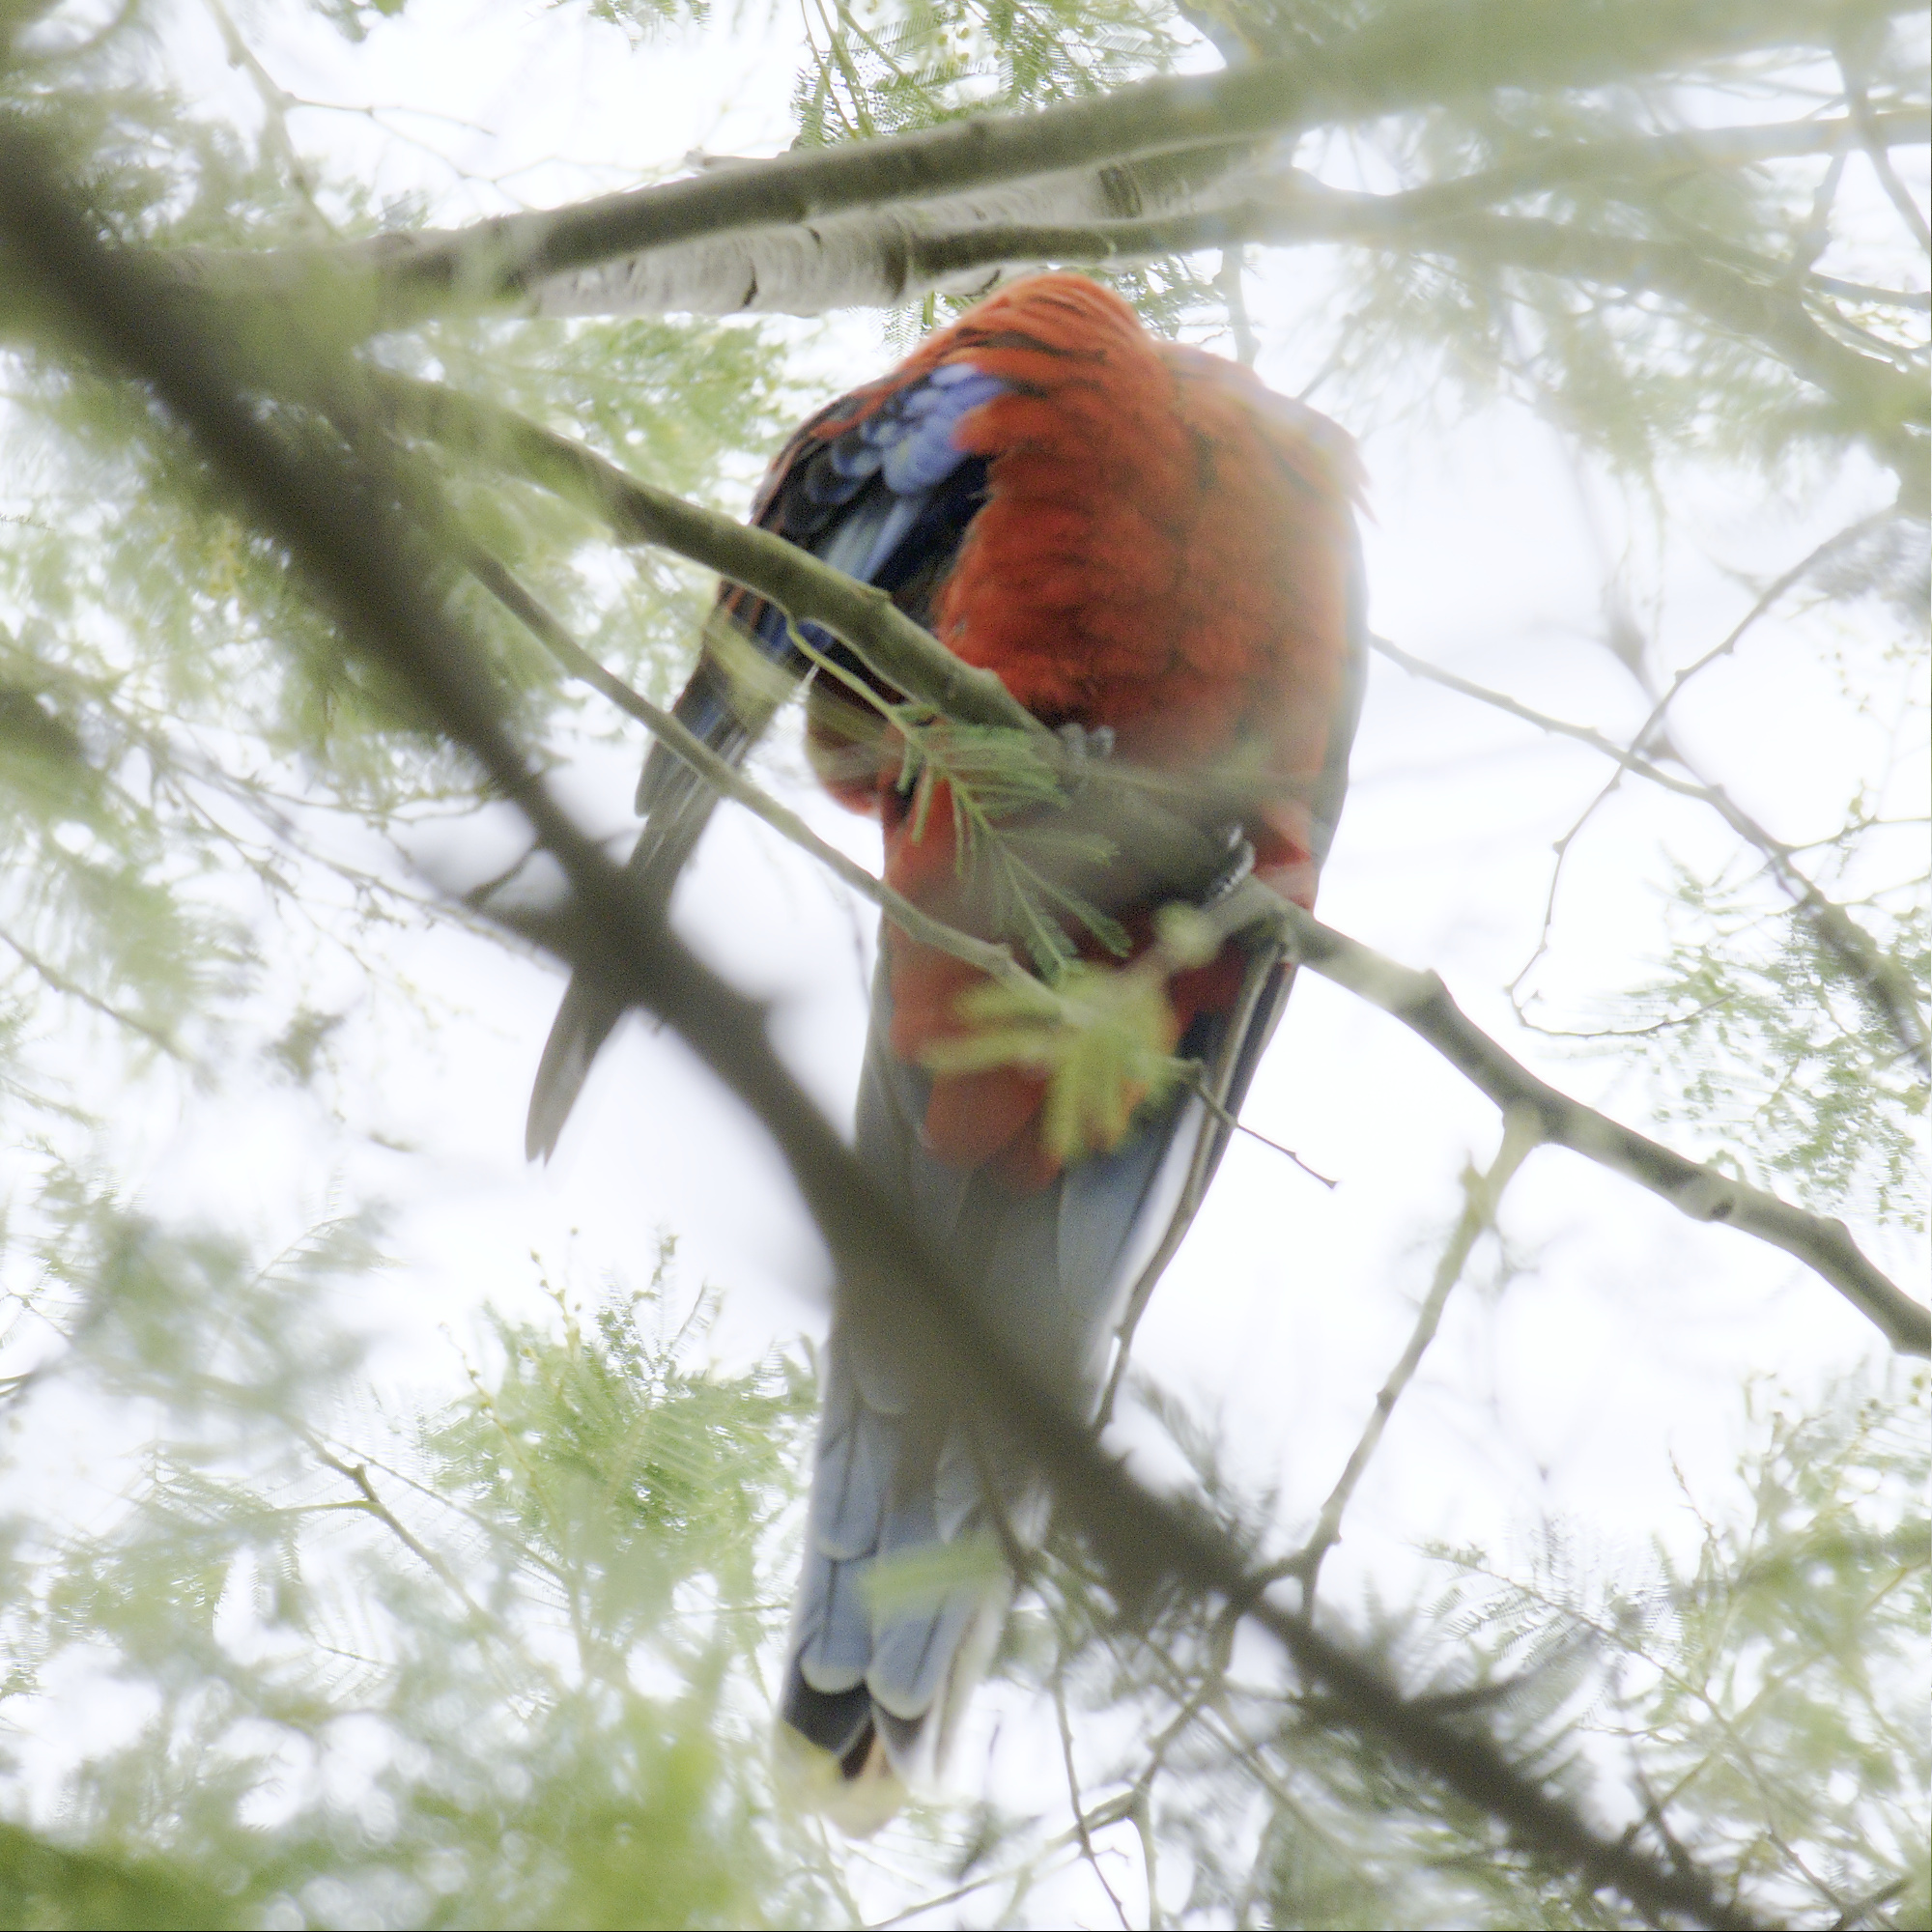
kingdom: Animalia
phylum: Chordata
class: Aves
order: Psittaciformes
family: Psittacidae
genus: Platycercus
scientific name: Platycercus elegans
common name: Crimson rosella
